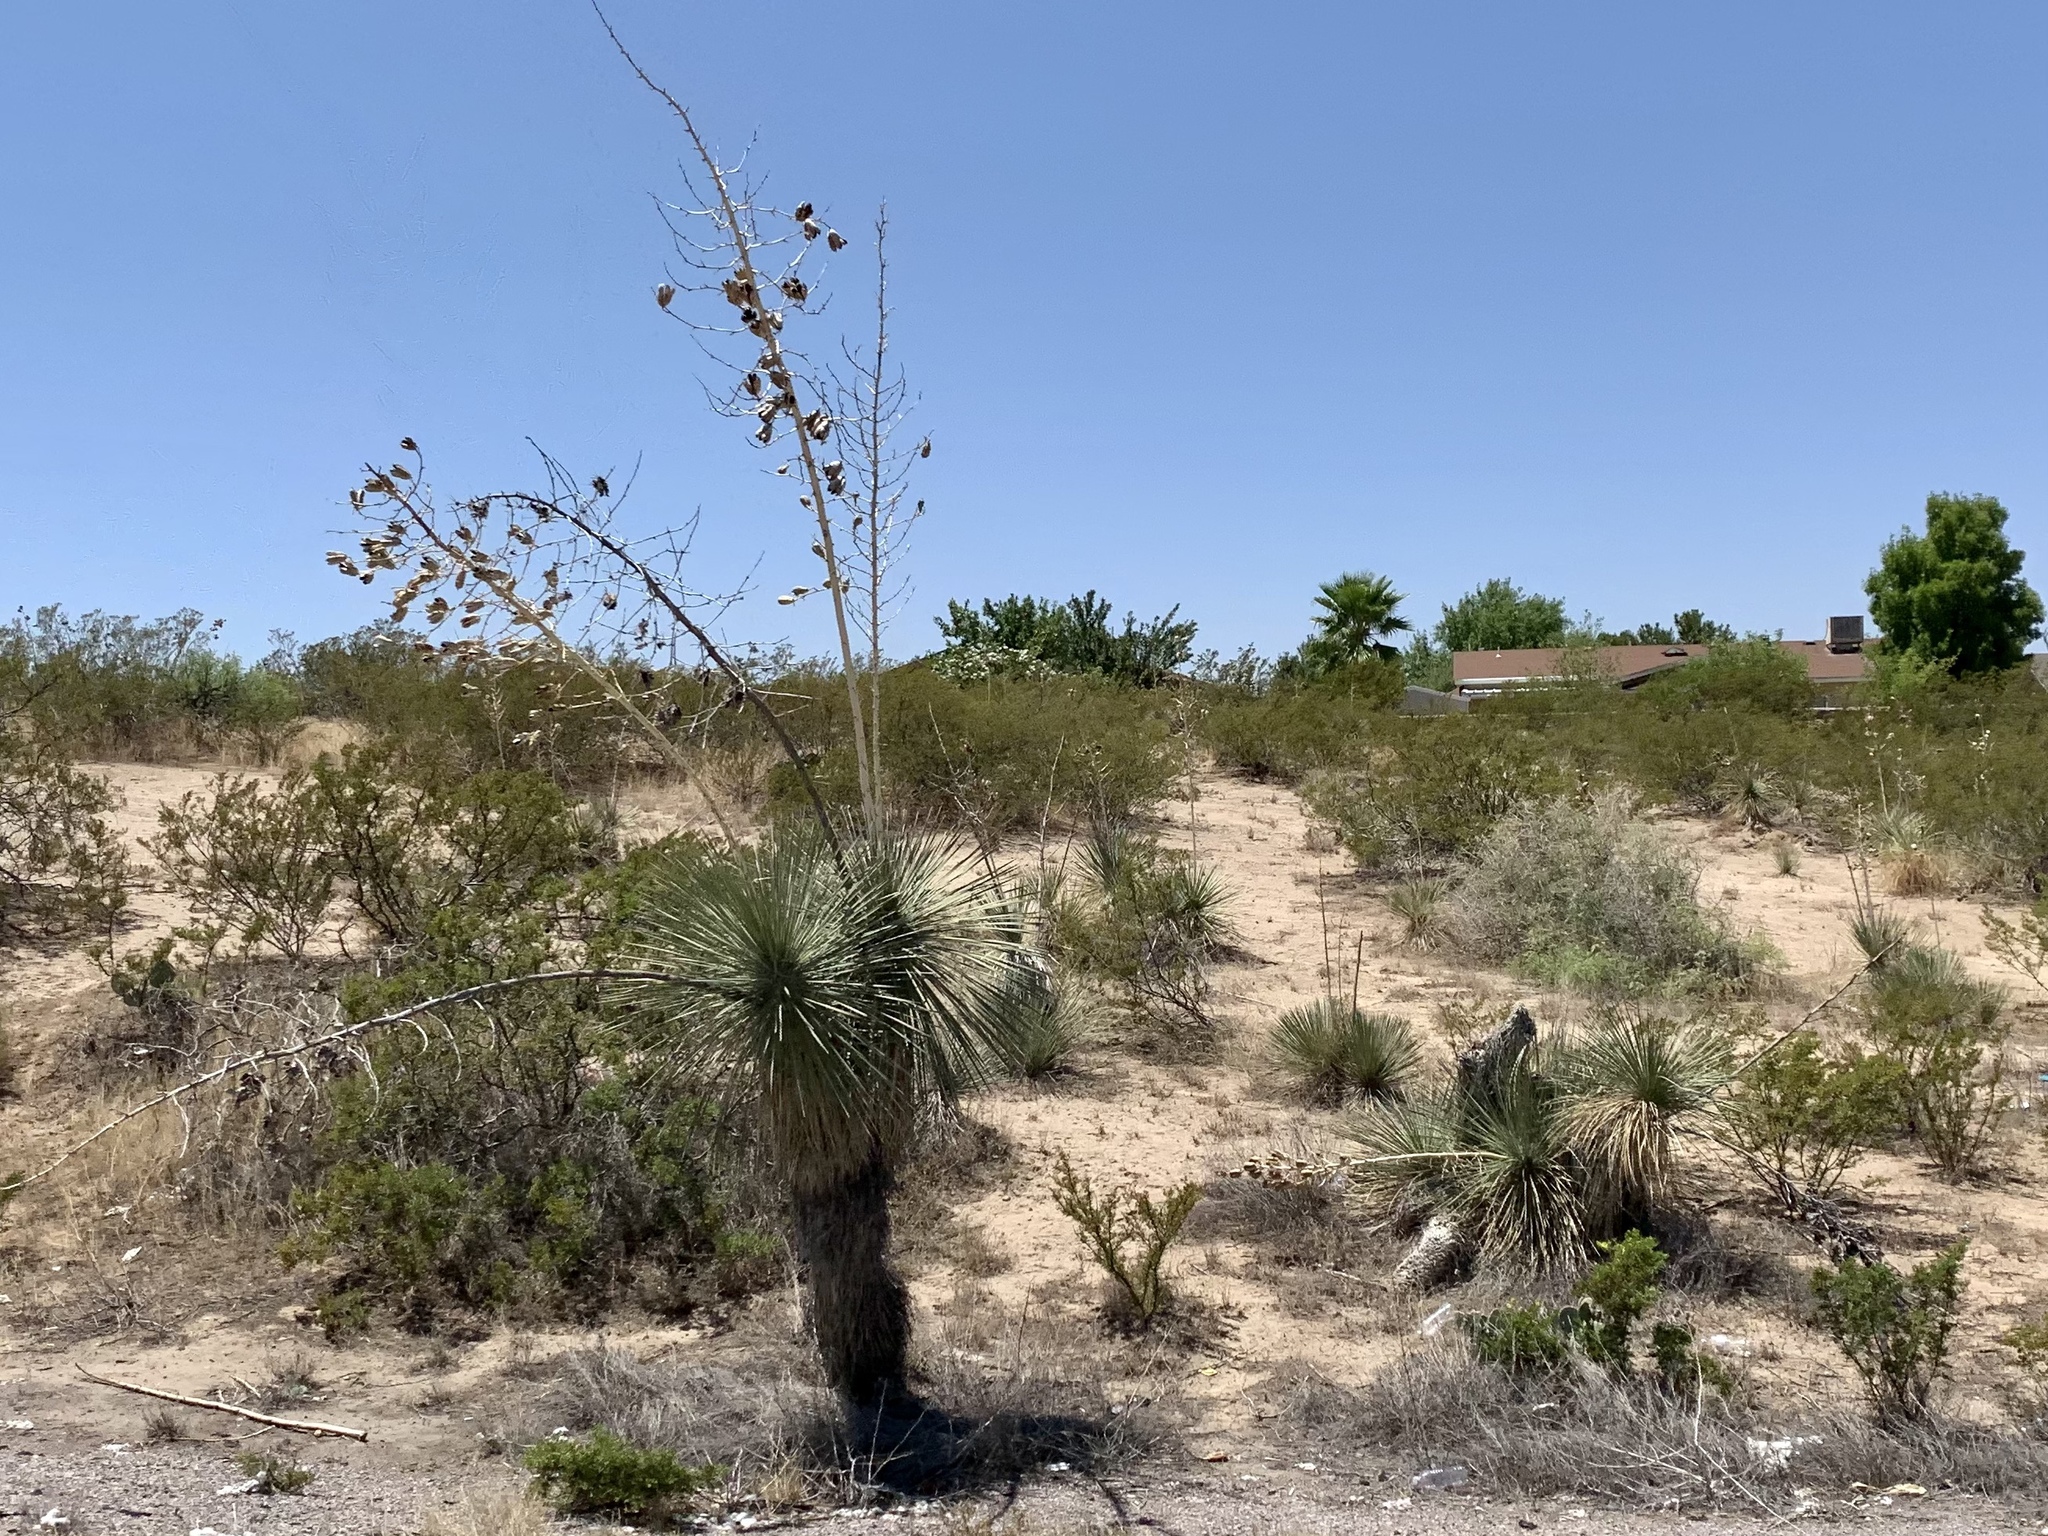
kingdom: Plantae
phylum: Tracheophyta
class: Liliopsida
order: Asparagales
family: Asparagaceae
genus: Yucca
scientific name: Yucca elata
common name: Palmella
